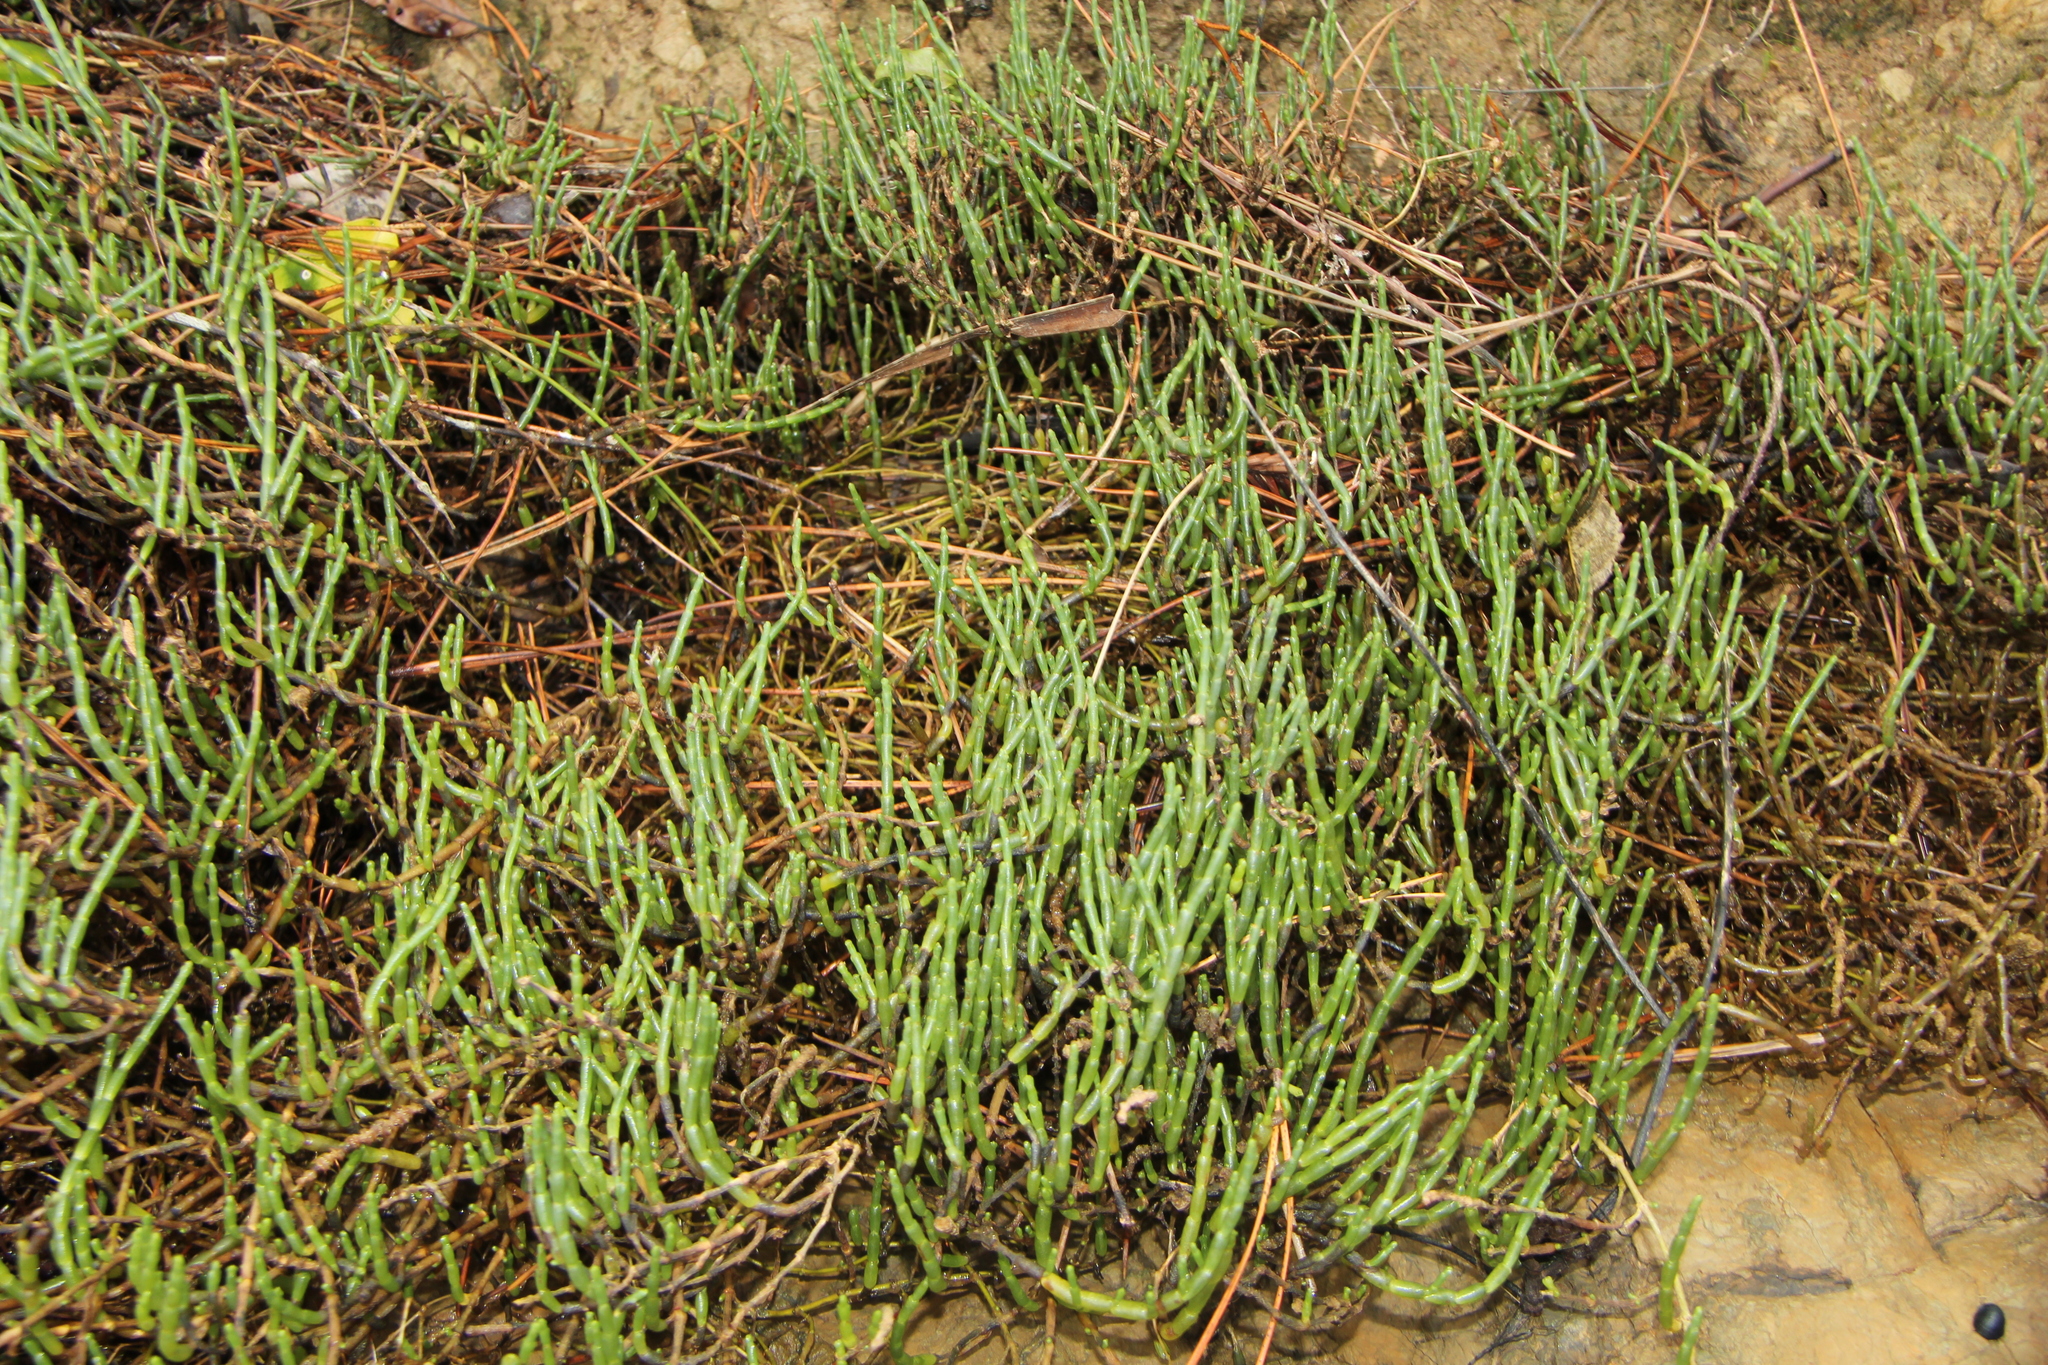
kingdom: Plantae
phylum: Tracheophyta
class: Magnoliopsida
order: Caryophyllales
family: Amaranthaceae
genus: Salicornia
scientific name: Salicornia quinqueflora
